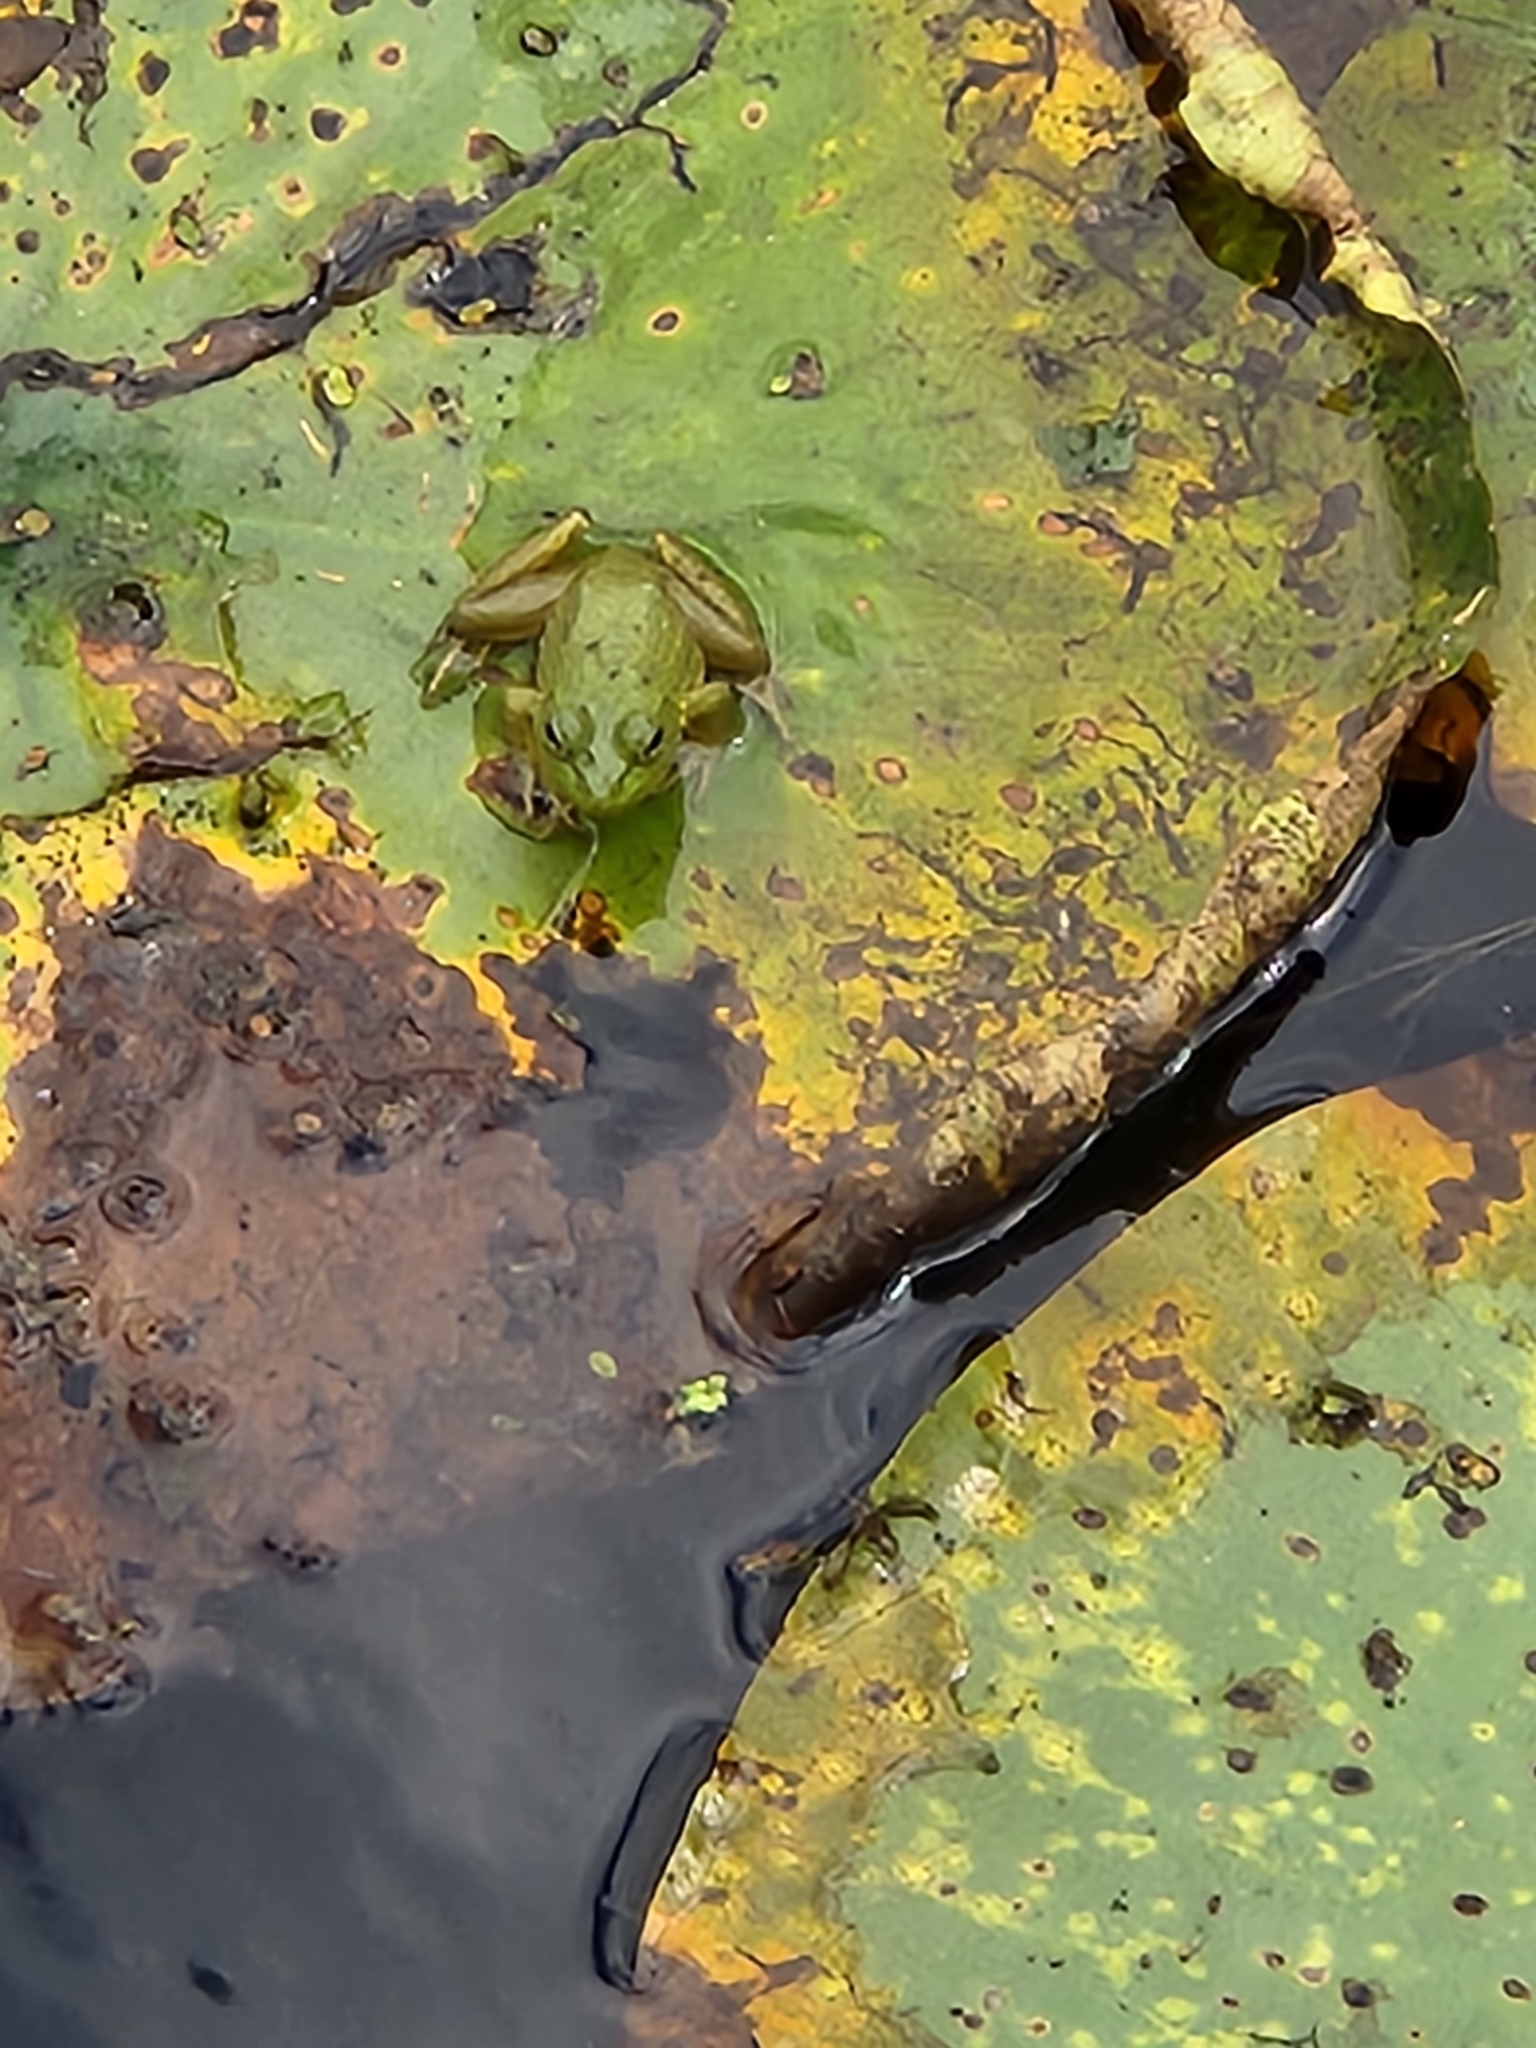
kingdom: Animalia
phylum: Chordata
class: Amphibia
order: Anura
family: Ranidae
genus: Lithobates
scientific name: Lithobates catesbeianus
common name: American bullfrog
